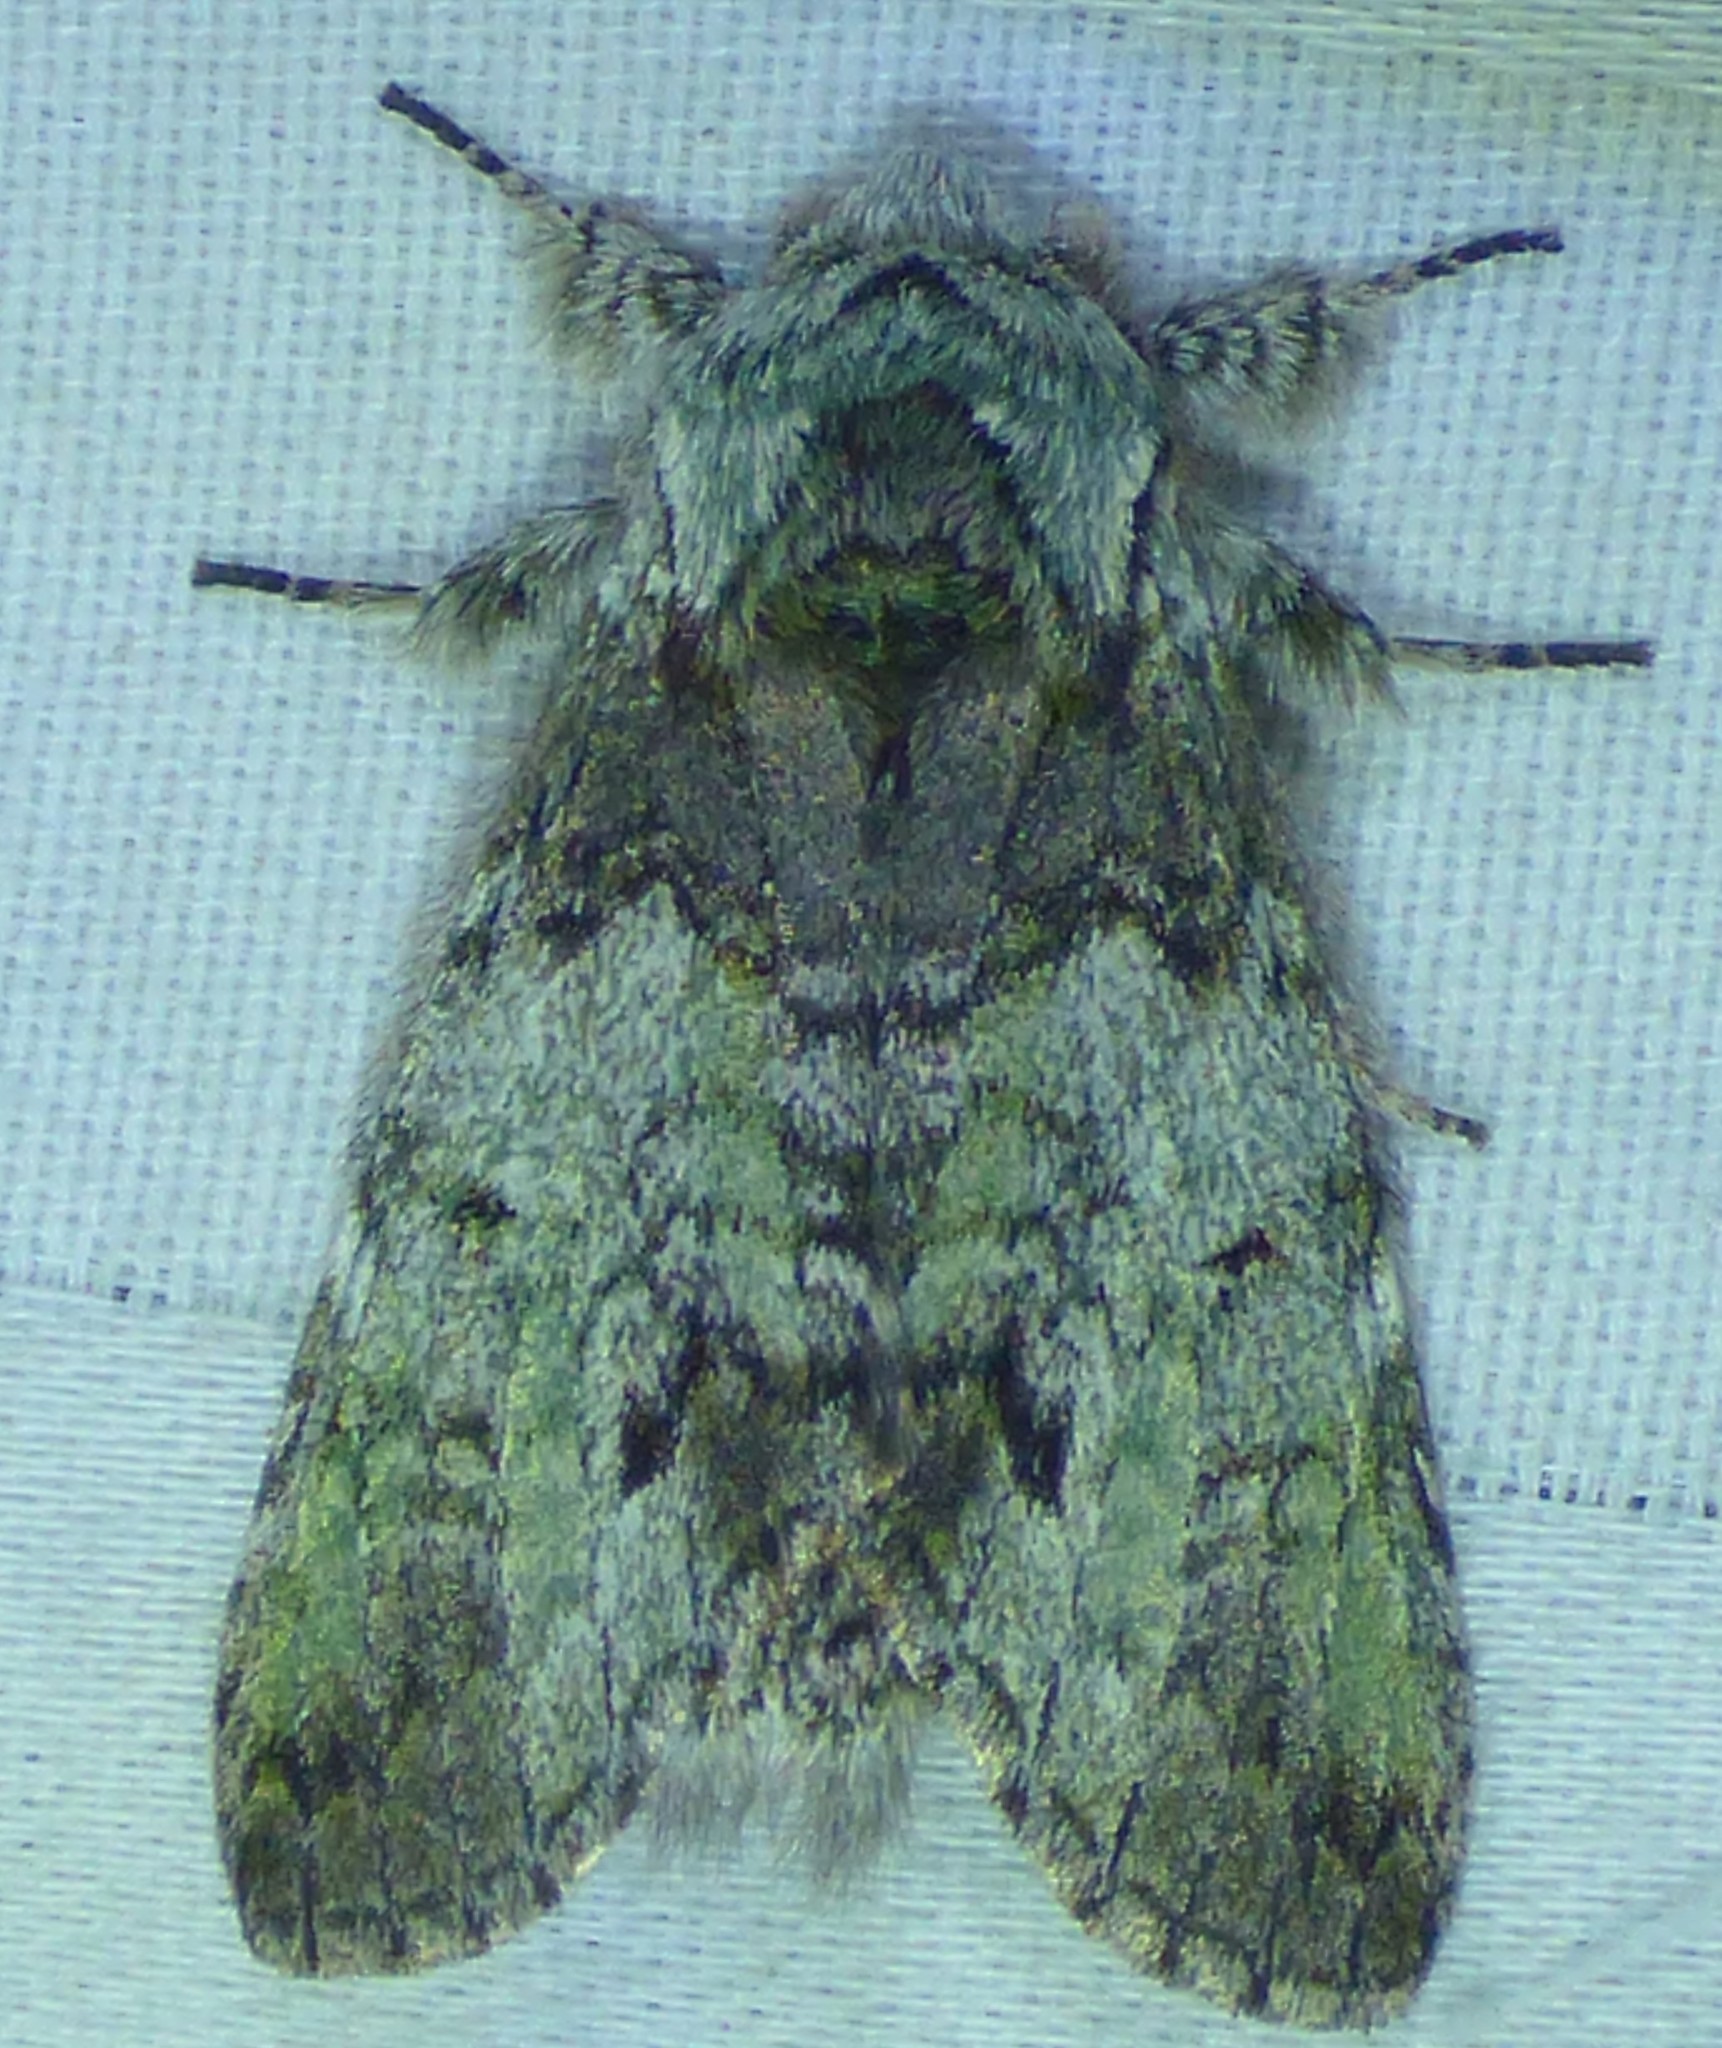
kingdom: Animalia
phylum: Arthropoda
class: Insecta
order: Lepidoptera
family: Notodontidae
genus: Macrurocampa
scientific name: Macrurocampa marthesia
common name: Mottled prominent
